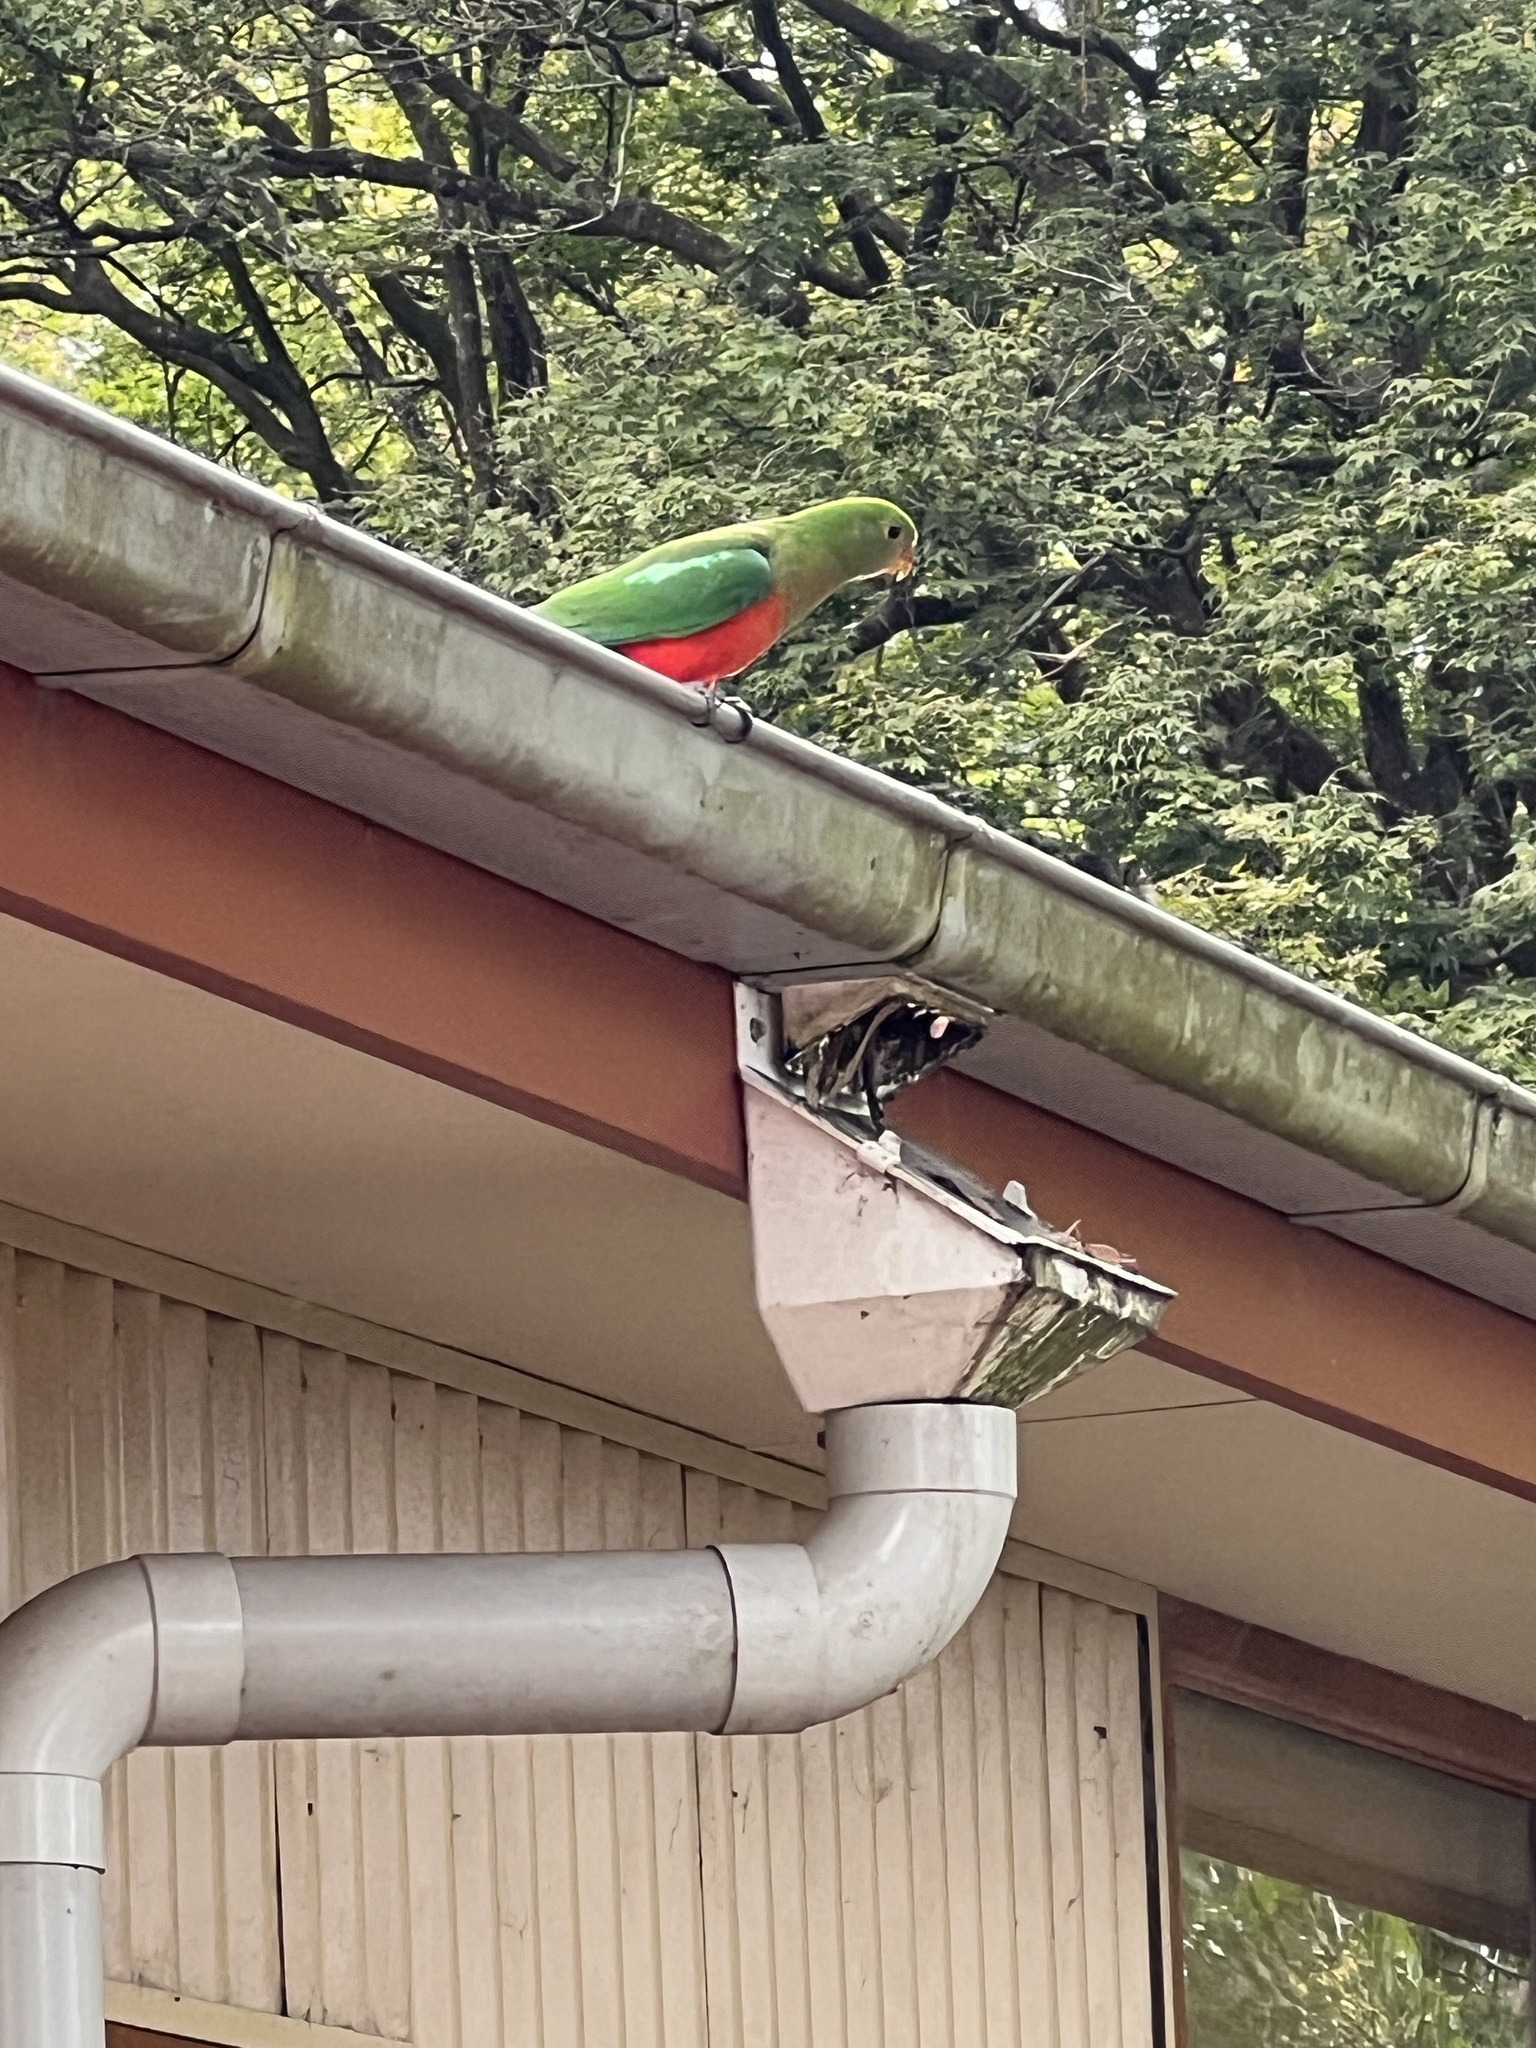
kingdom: Animalia
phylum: Chordata
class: Aves
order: Psittaciformes
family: Psittacidae
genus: Alisterus
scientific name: Alisterus scapularis
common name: Australian king parrot
